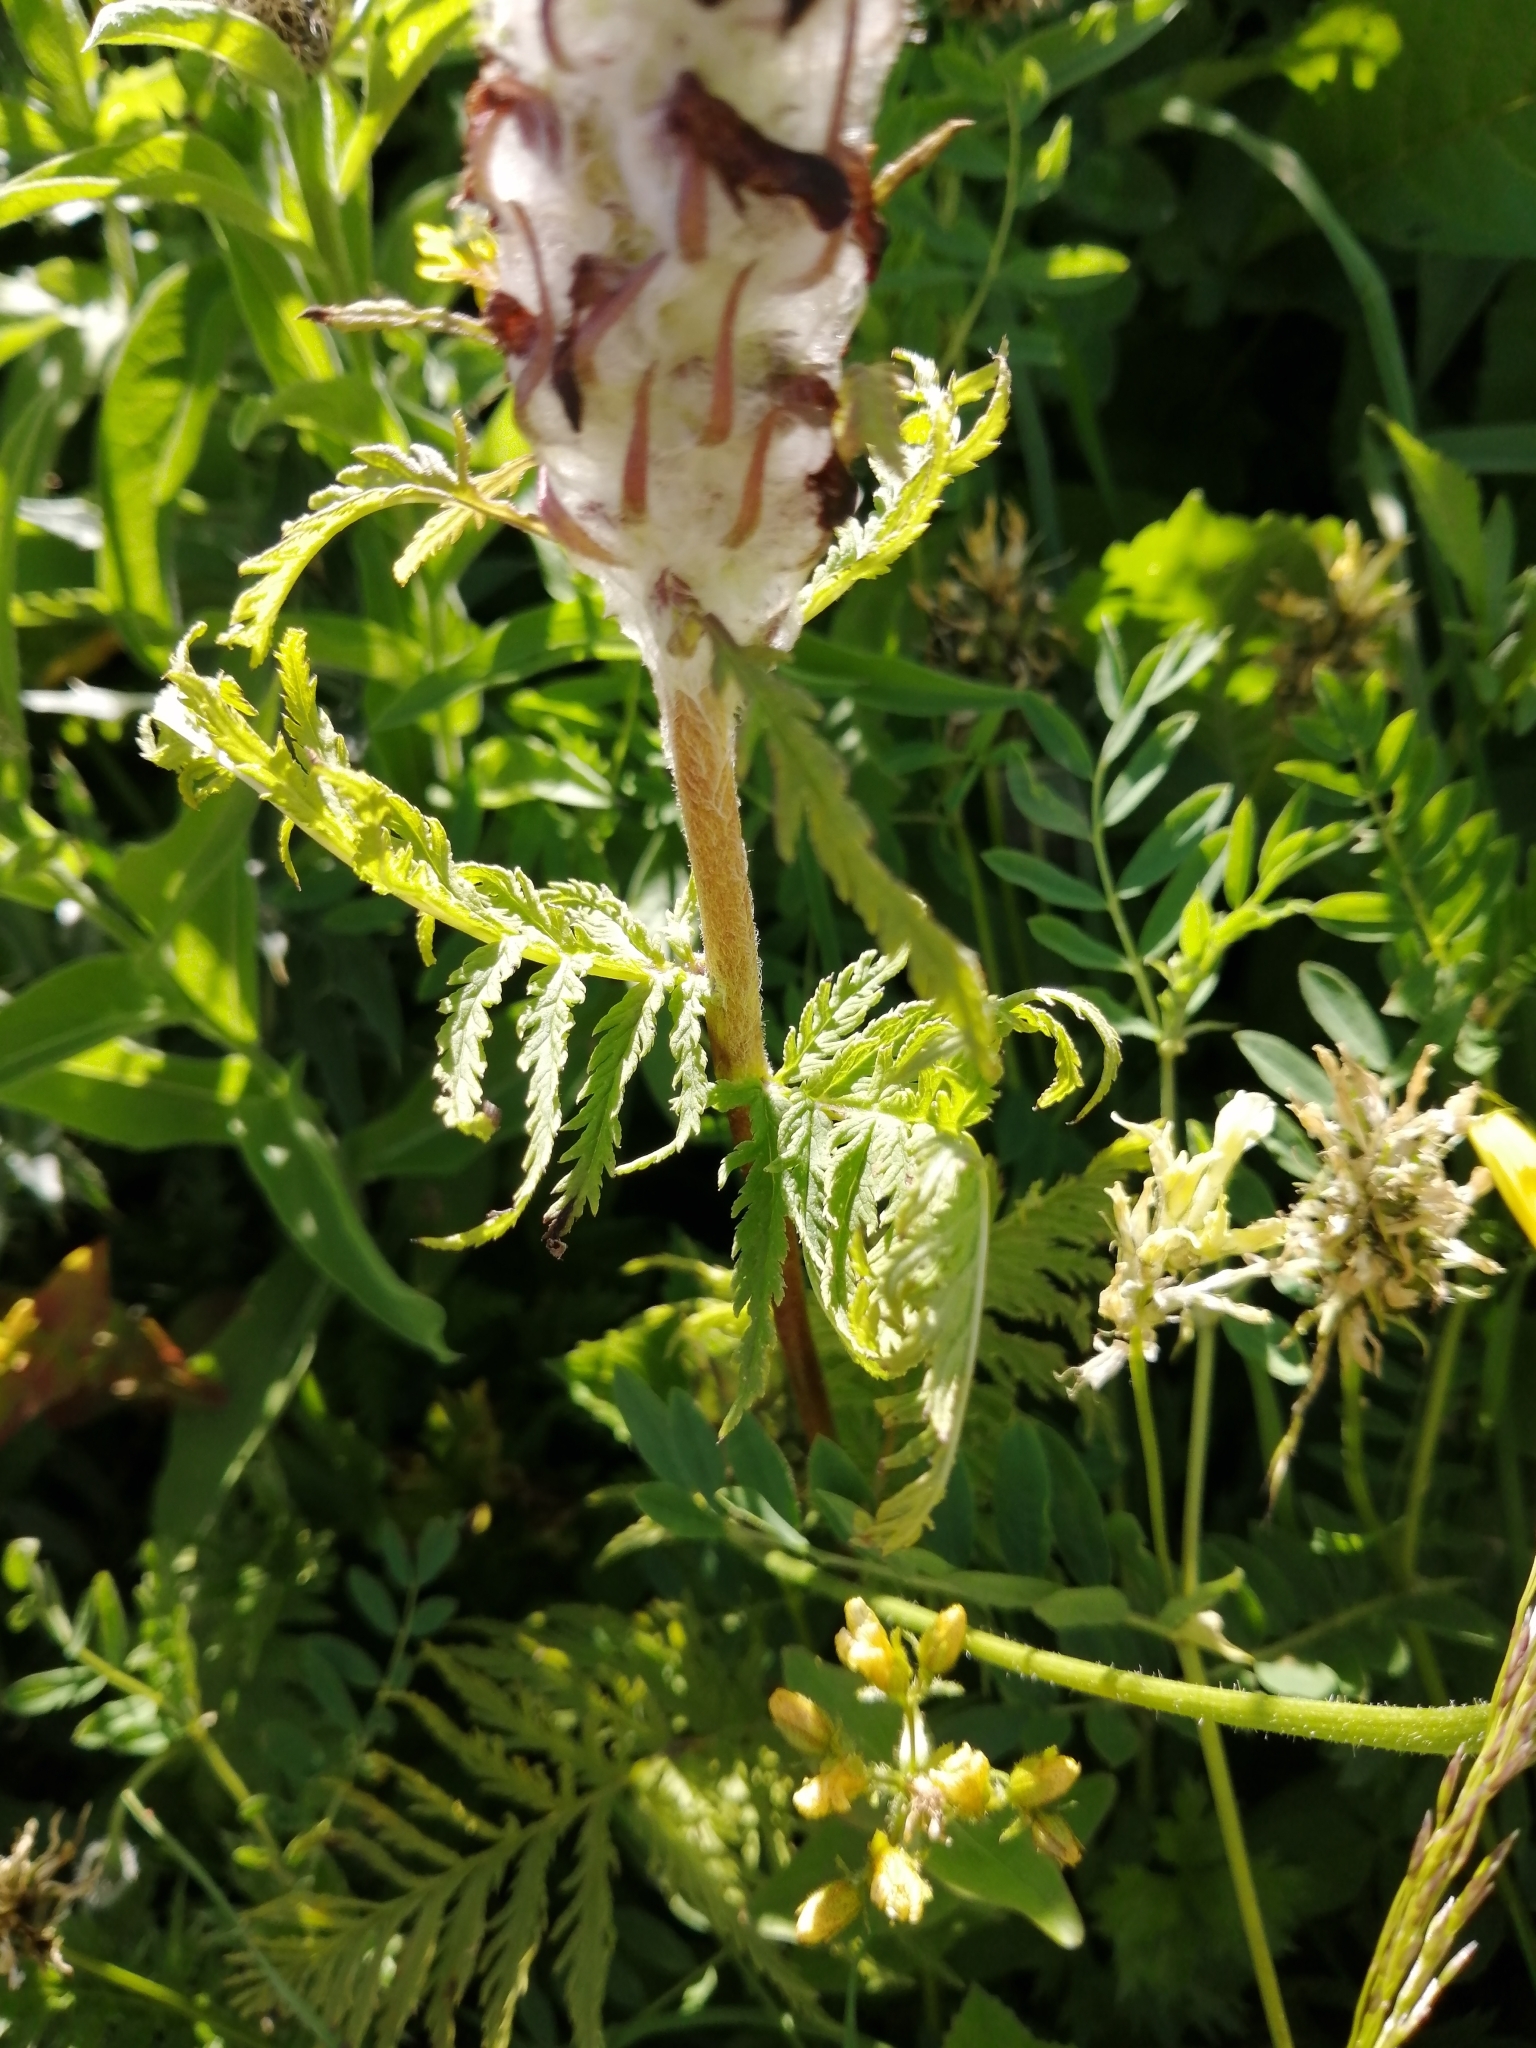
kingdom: Plantae
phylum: Tracheophyta
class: Magnoliopsida
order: Lamiales
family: Orobanchaceae
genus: Pedicularis
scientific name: Pedicularis atropurpurea
